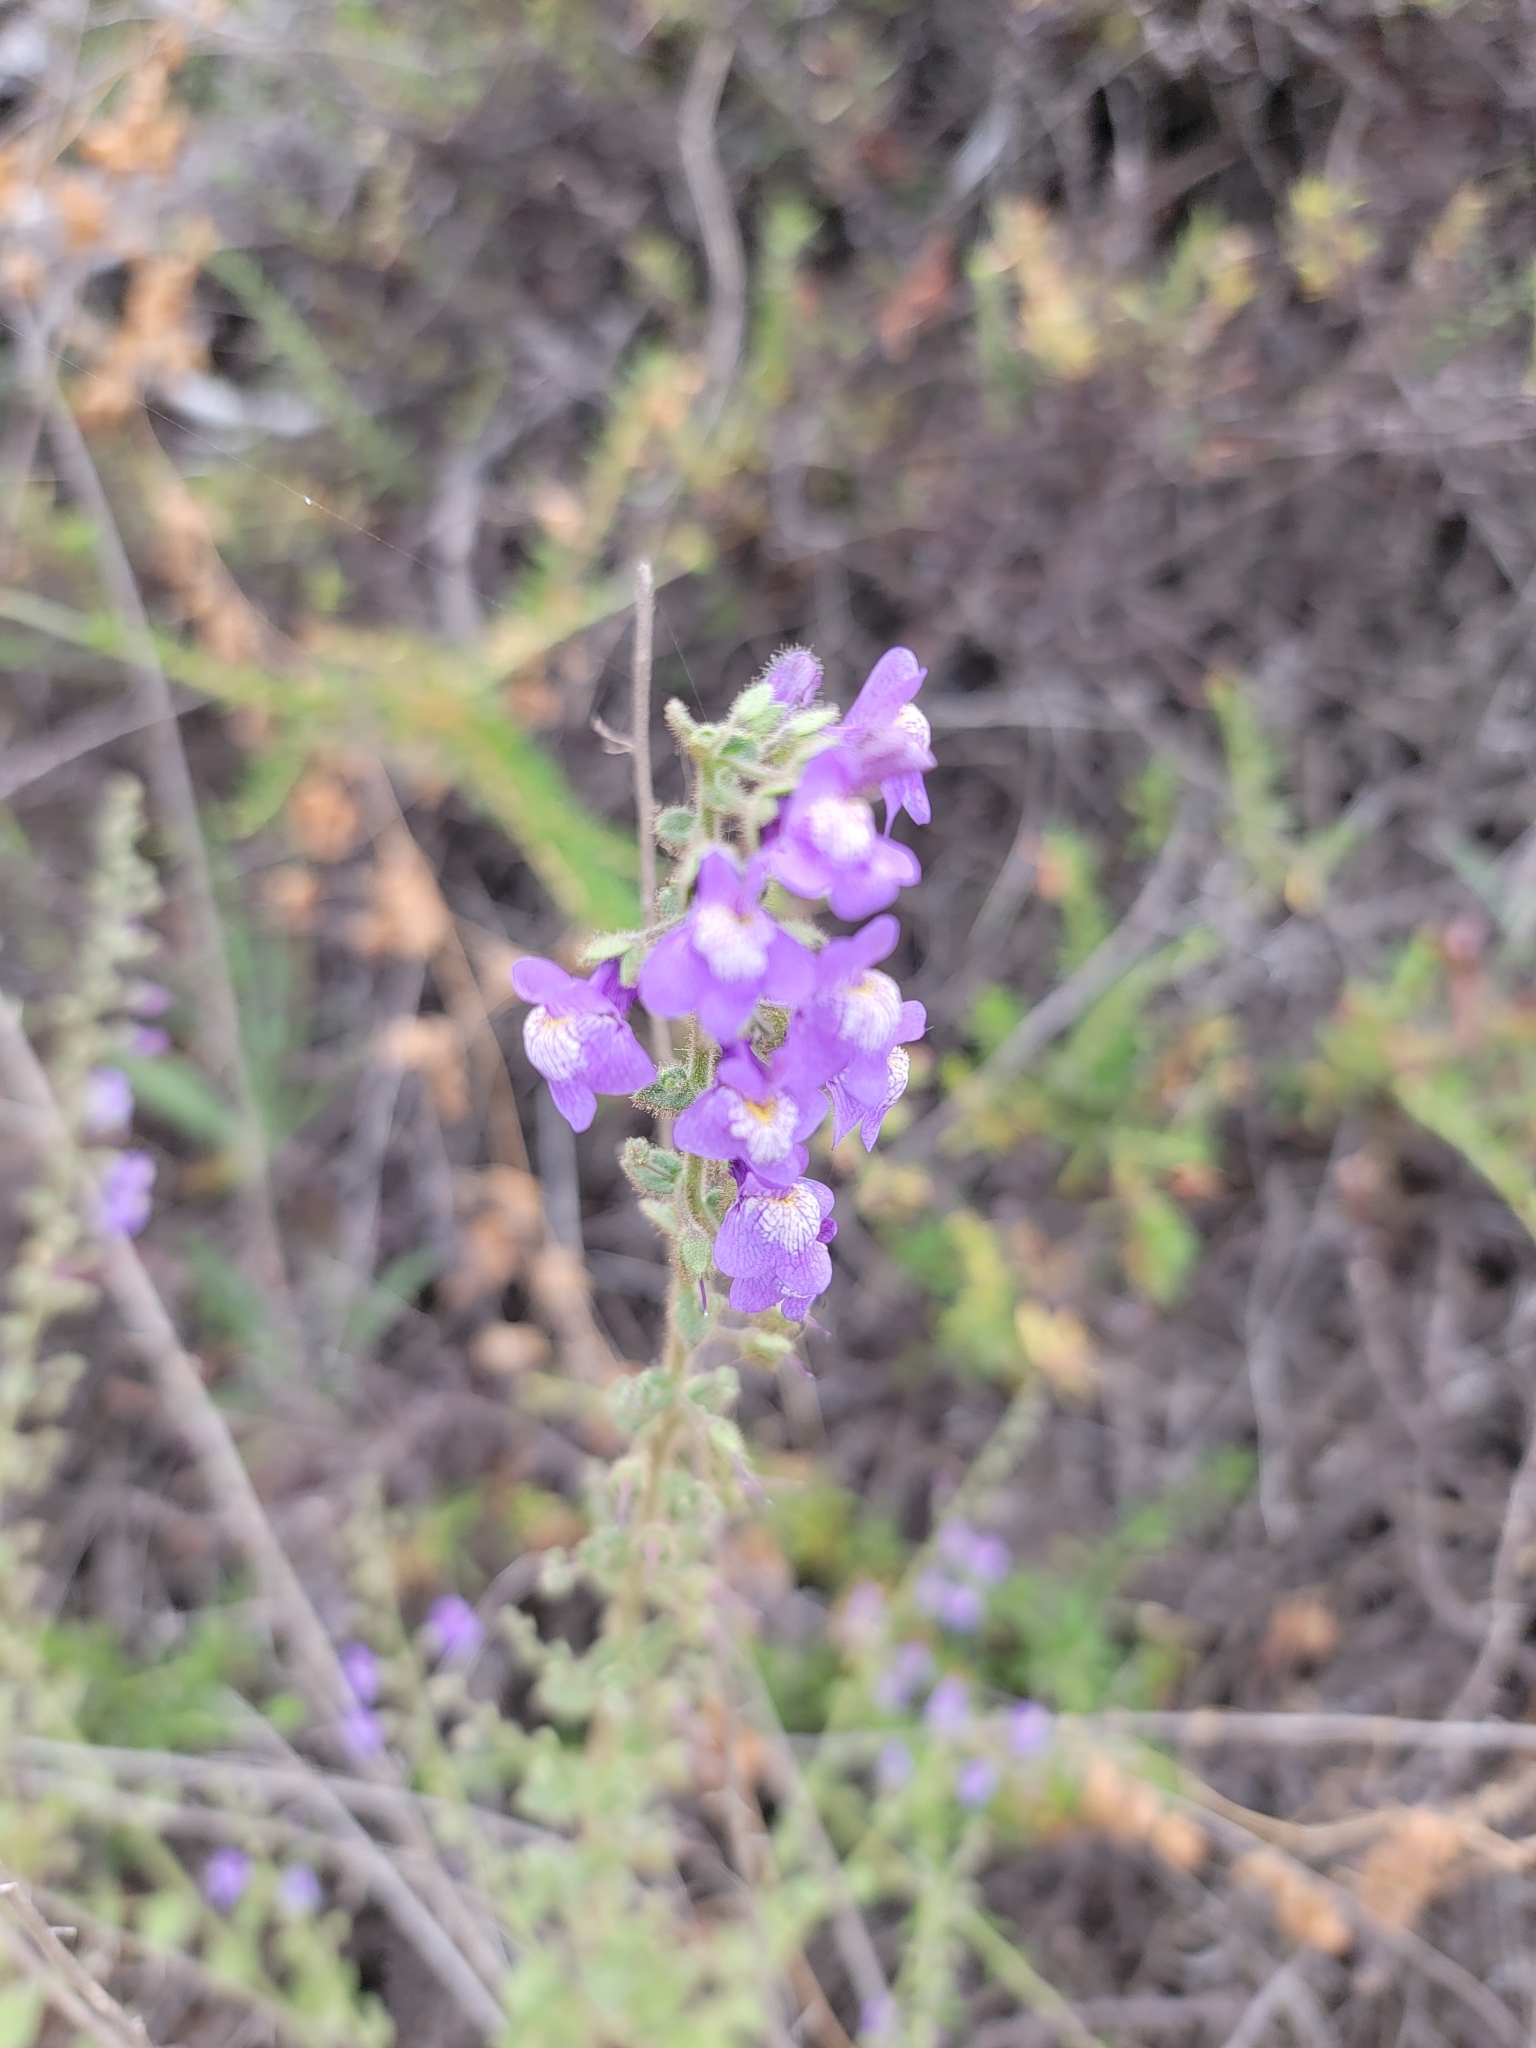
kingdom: Plantae
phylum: Tracheophyta
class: Magnoliopsida
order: Lamiales
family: Plantaginaceae
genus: Sairocarpus
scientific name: Sairocarpus nuttallianus
